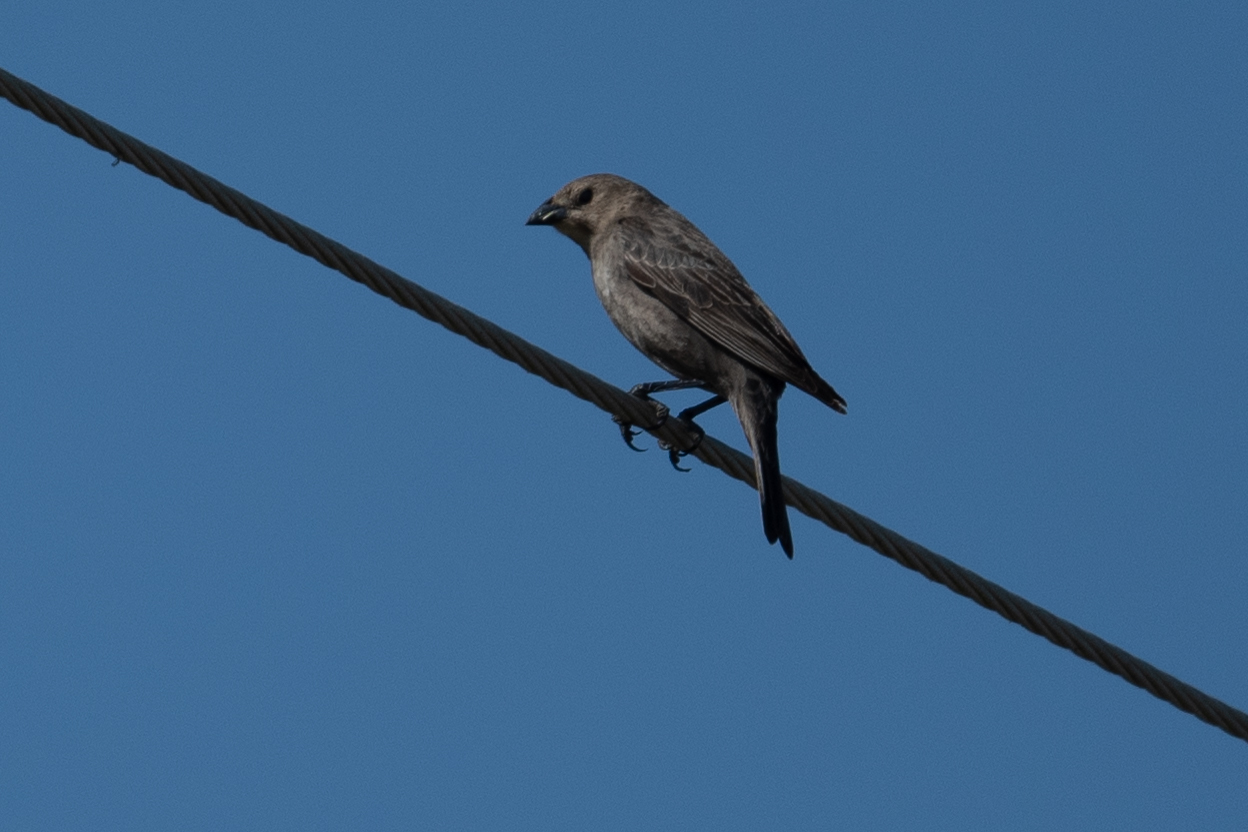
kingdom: Animalia
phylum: Chordata
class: Aves
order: Passeriformes
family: Icteridae
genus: Molothrus
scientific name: Molothrus ater
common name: Brown-headed cowbird
